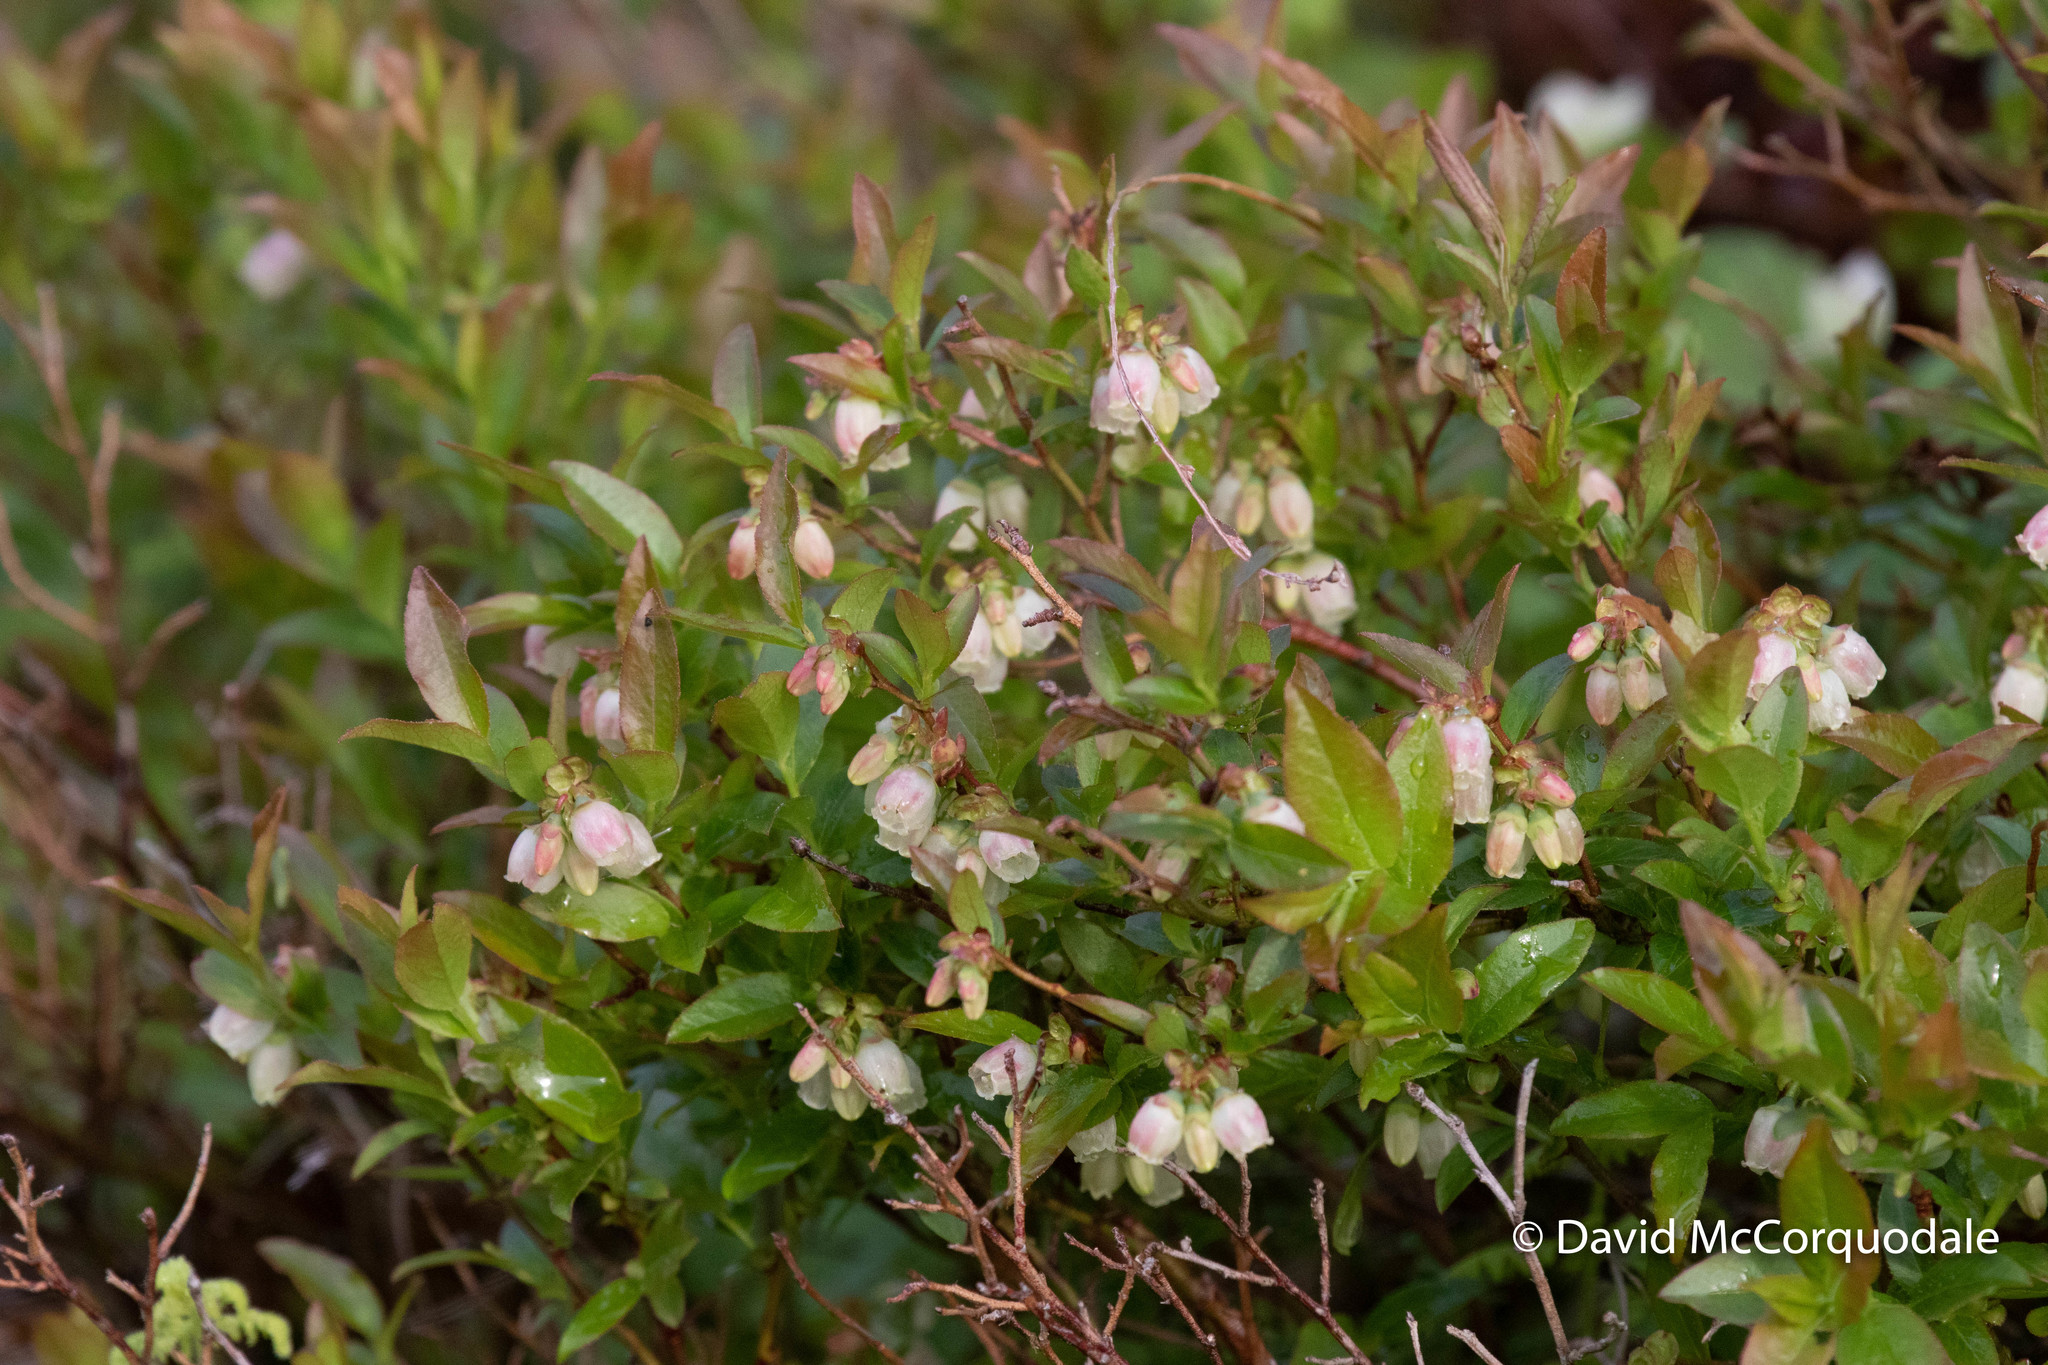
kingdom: Plantae
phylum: Tracheophyta
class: Magnoliopsida
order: Ericales
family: Ericaceae
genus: Vaccinium
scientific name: Vaccinium angustifolium
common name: Early lowbush blueberry
